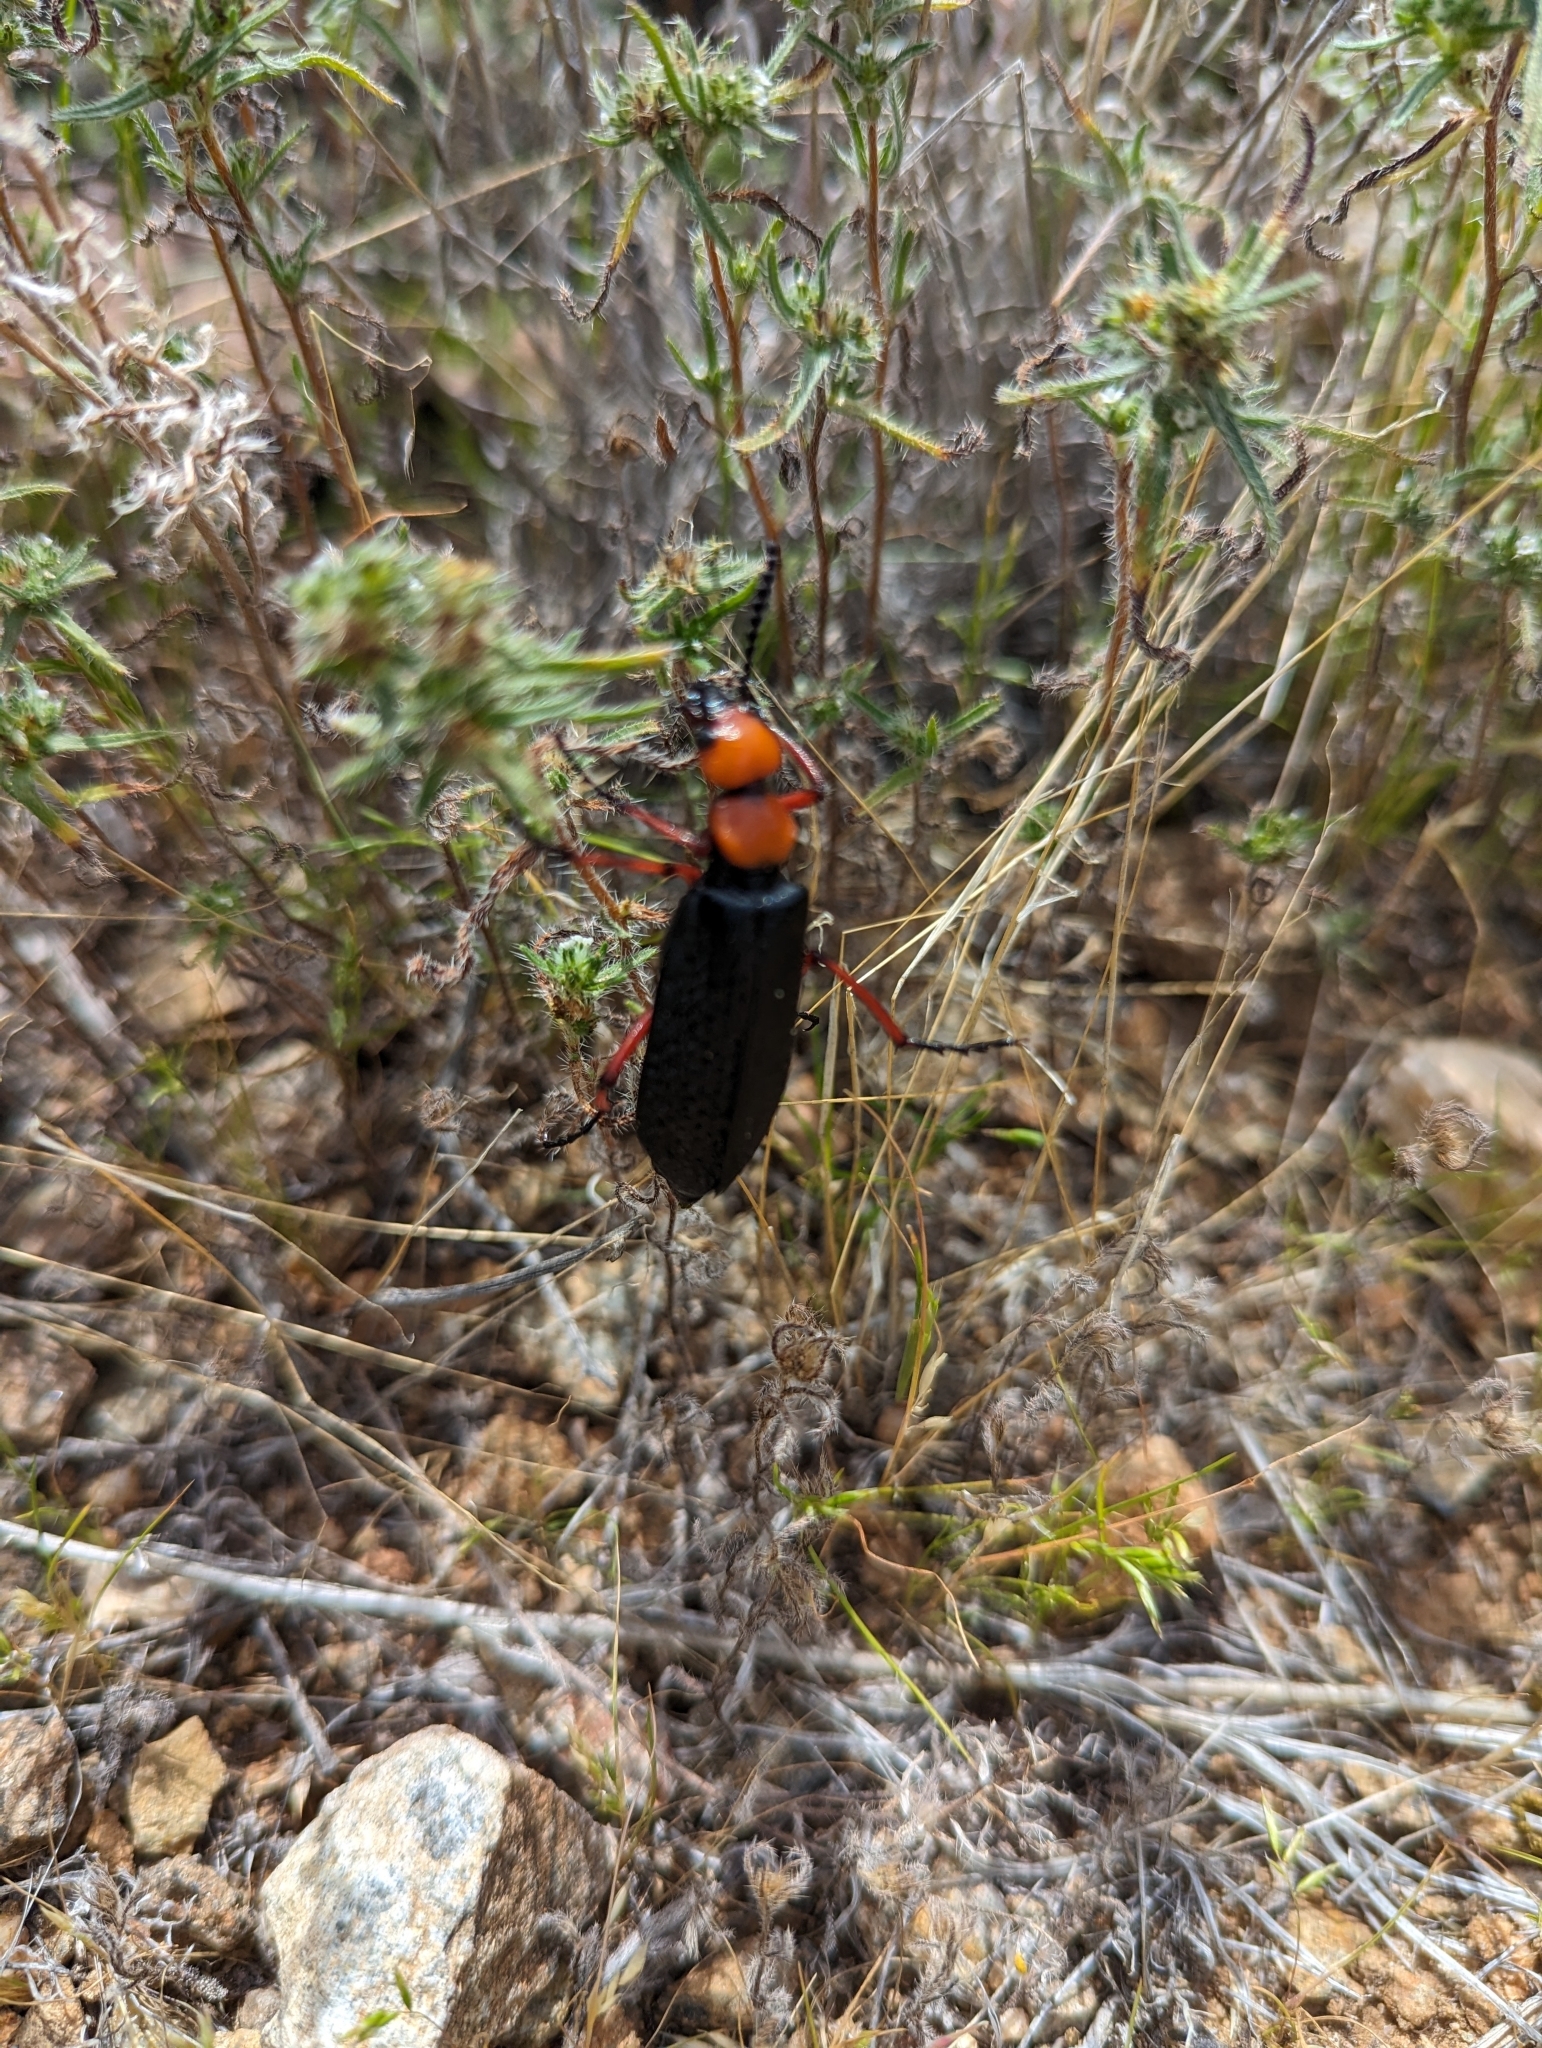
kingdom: Animalia
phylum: Arthropoda
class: Insecta
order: Coleoptera
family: Meloidae
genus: Lytta
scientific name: Lytta magister
